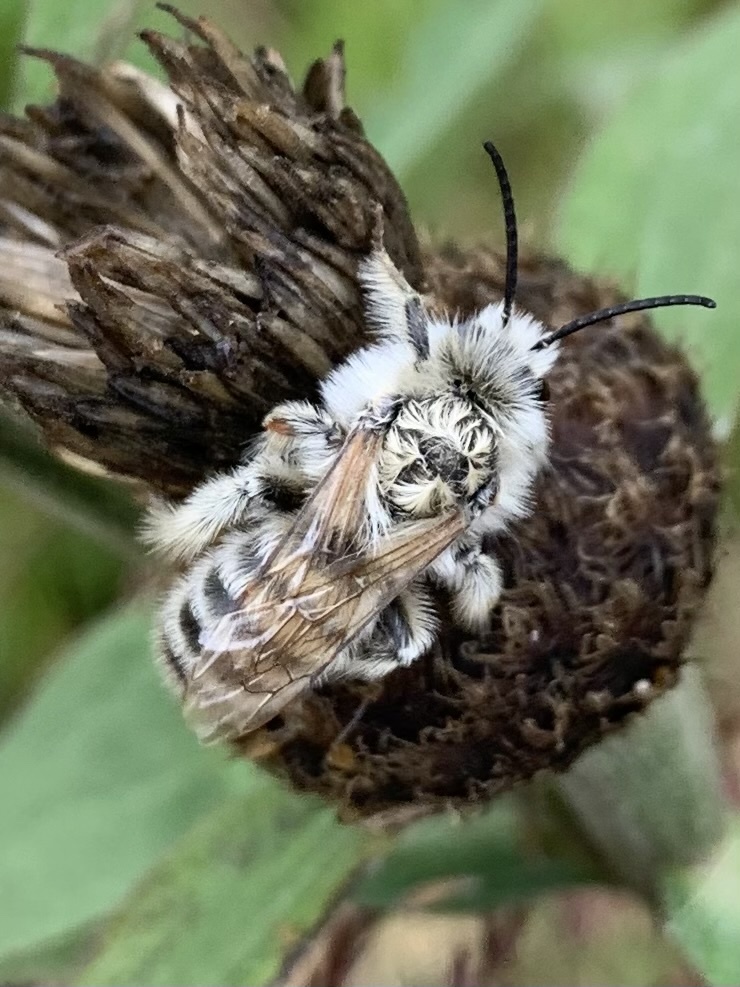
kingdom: Animalia
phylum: Arthropoda
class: Insecta
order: Hymenoptera
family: Melittidae
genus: Dasypoda
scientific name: Dasypoda hirtipes
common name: Pantaloon bee
